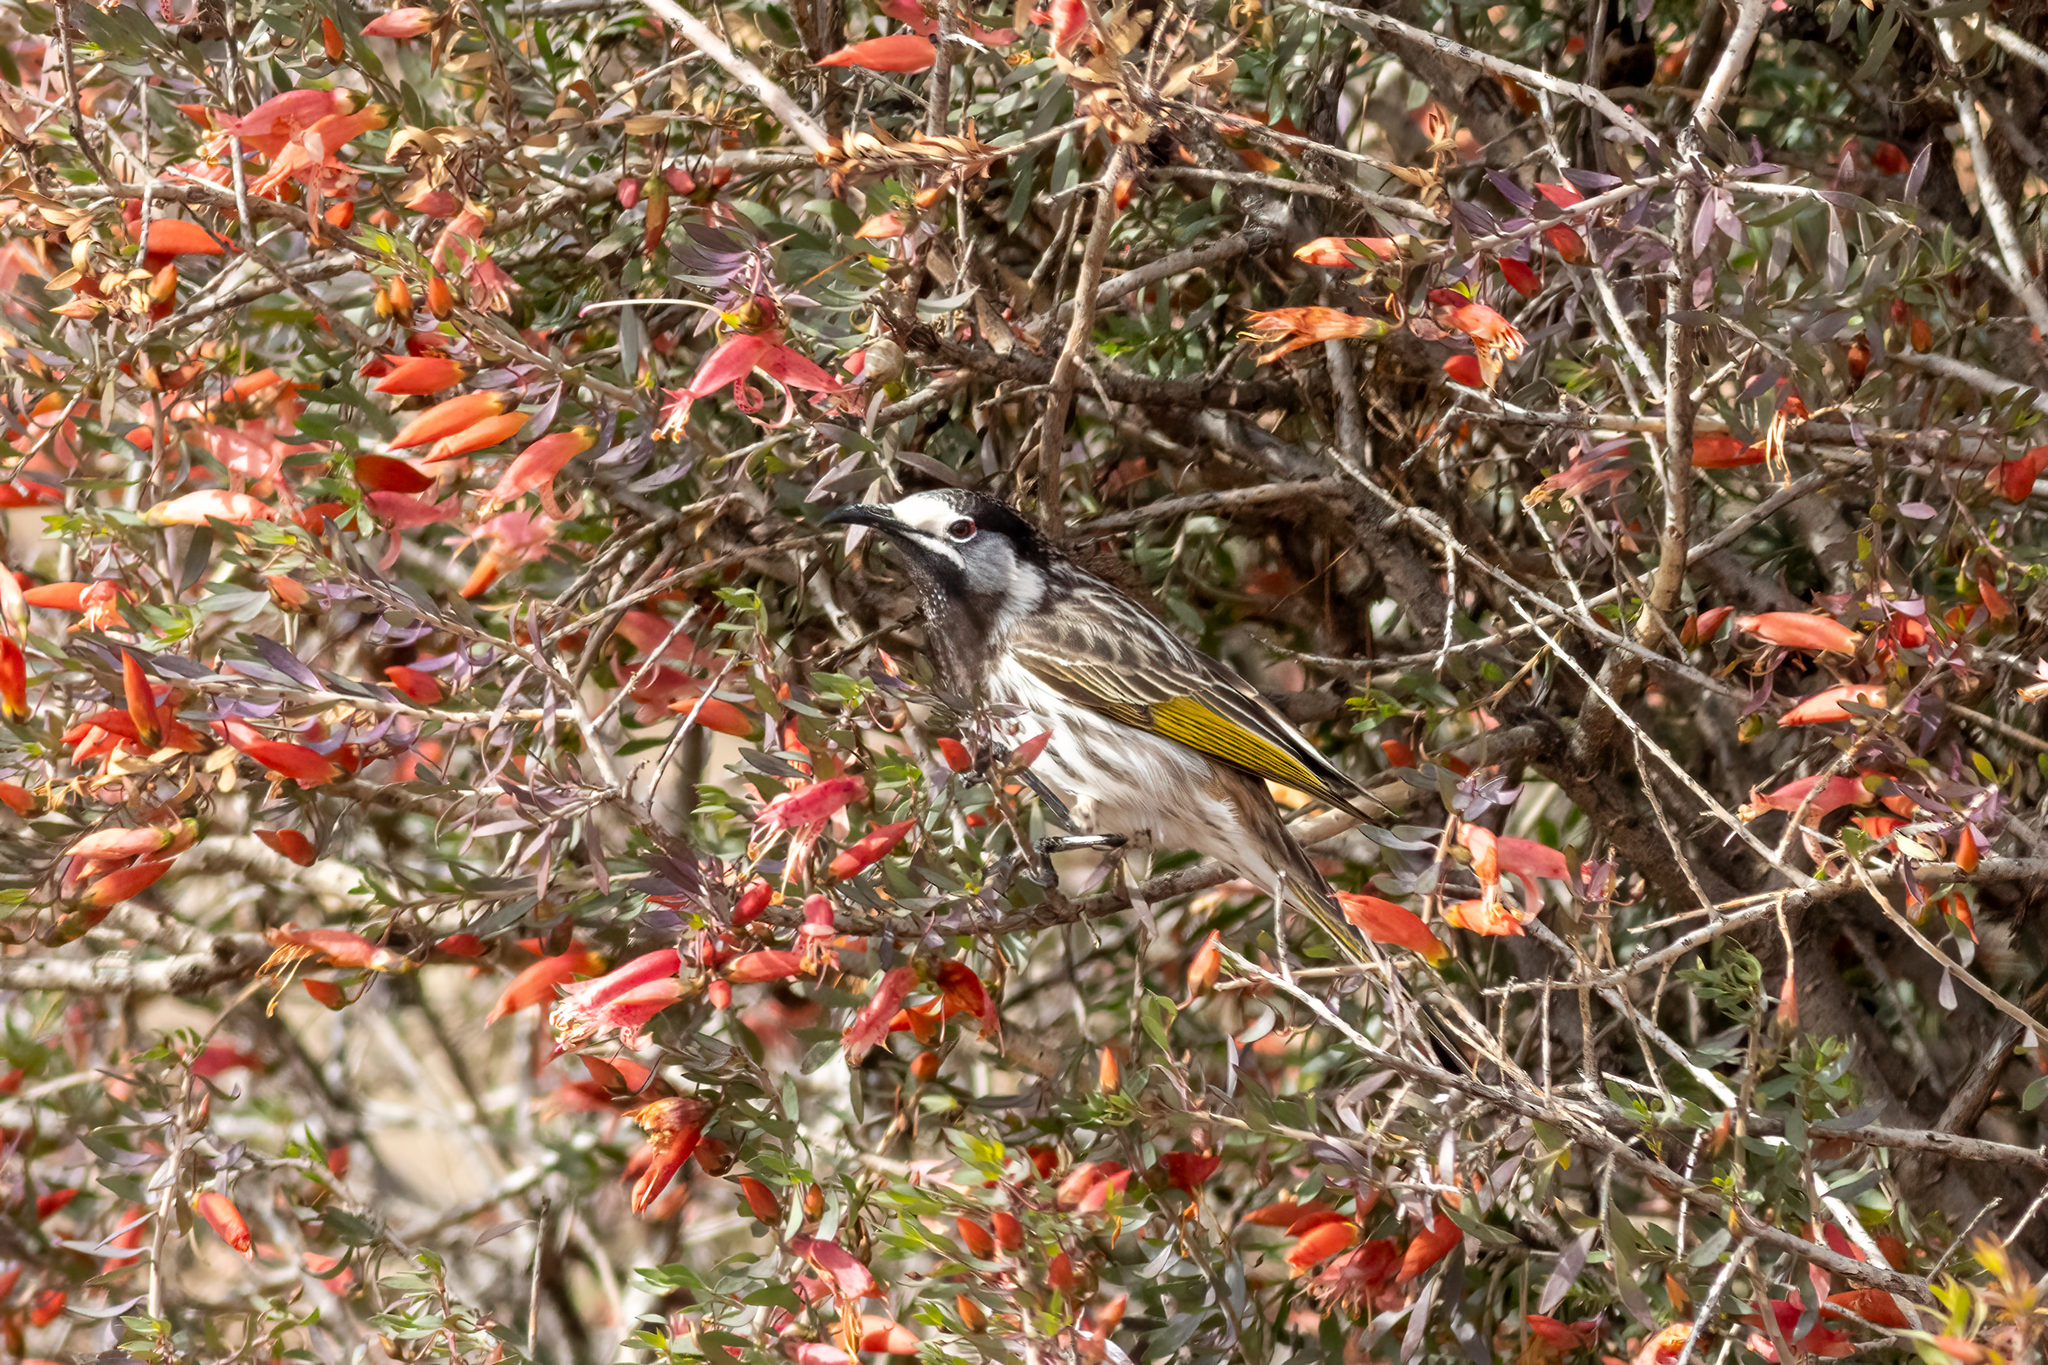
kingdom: Animalia
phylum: Chordata
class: Aves
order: Passeriformes
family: Meliphagidae
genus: Purnella
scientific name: Purnella albifrons
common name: White-fronted honeyeater
